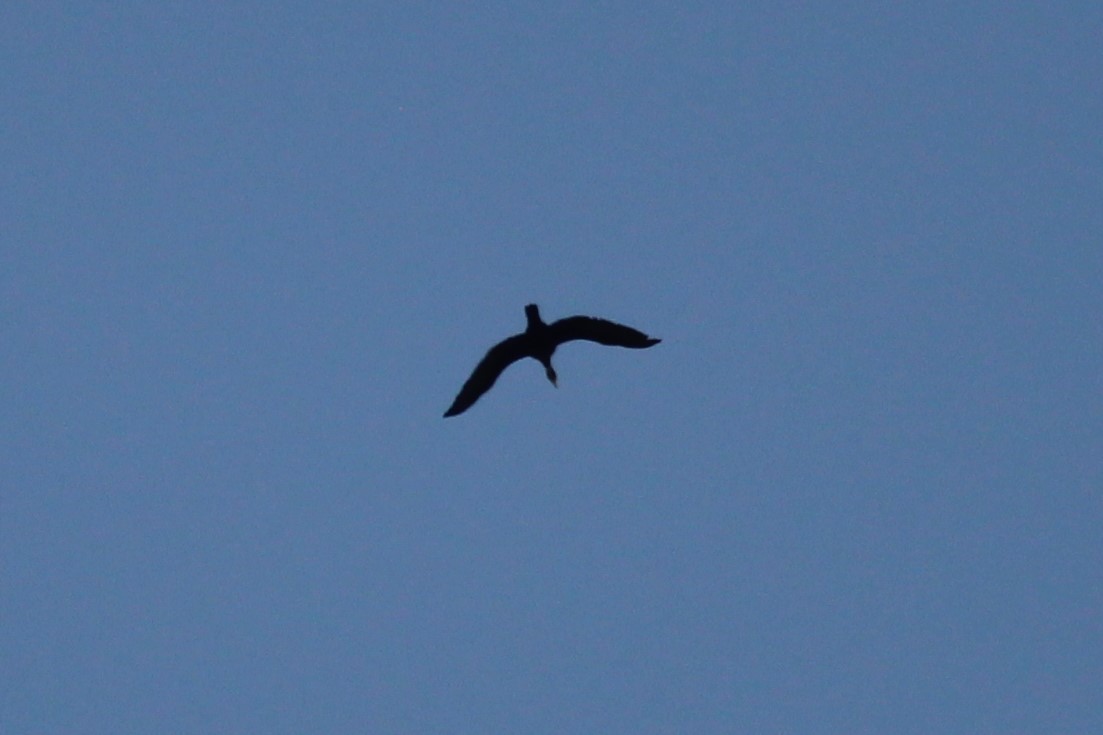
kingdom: Animalia
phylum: Chordata
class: Aves
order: Suliformes
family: Phalacrocoracidae
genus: Phalacrocorax
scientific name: Phalacrocorax auritus
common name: Double-crested cormorant
